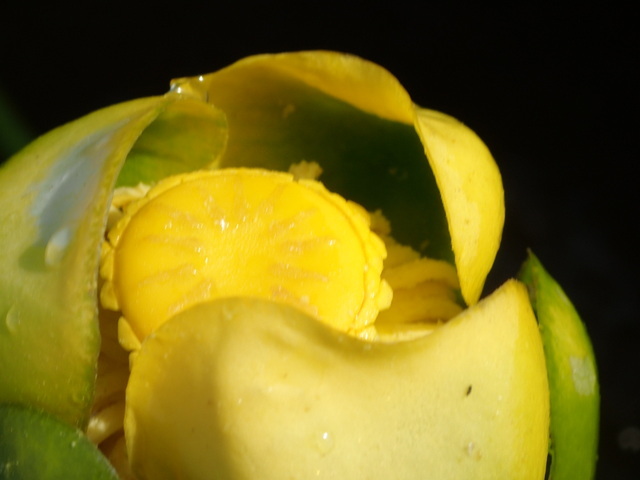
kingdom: Plantae
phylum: Tracheophyta
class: Magnoliopsida
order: Nymphaeales
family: Nymphaeaceae
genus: Nuphar
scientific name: Nuphar advena
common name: Spatter-dock
